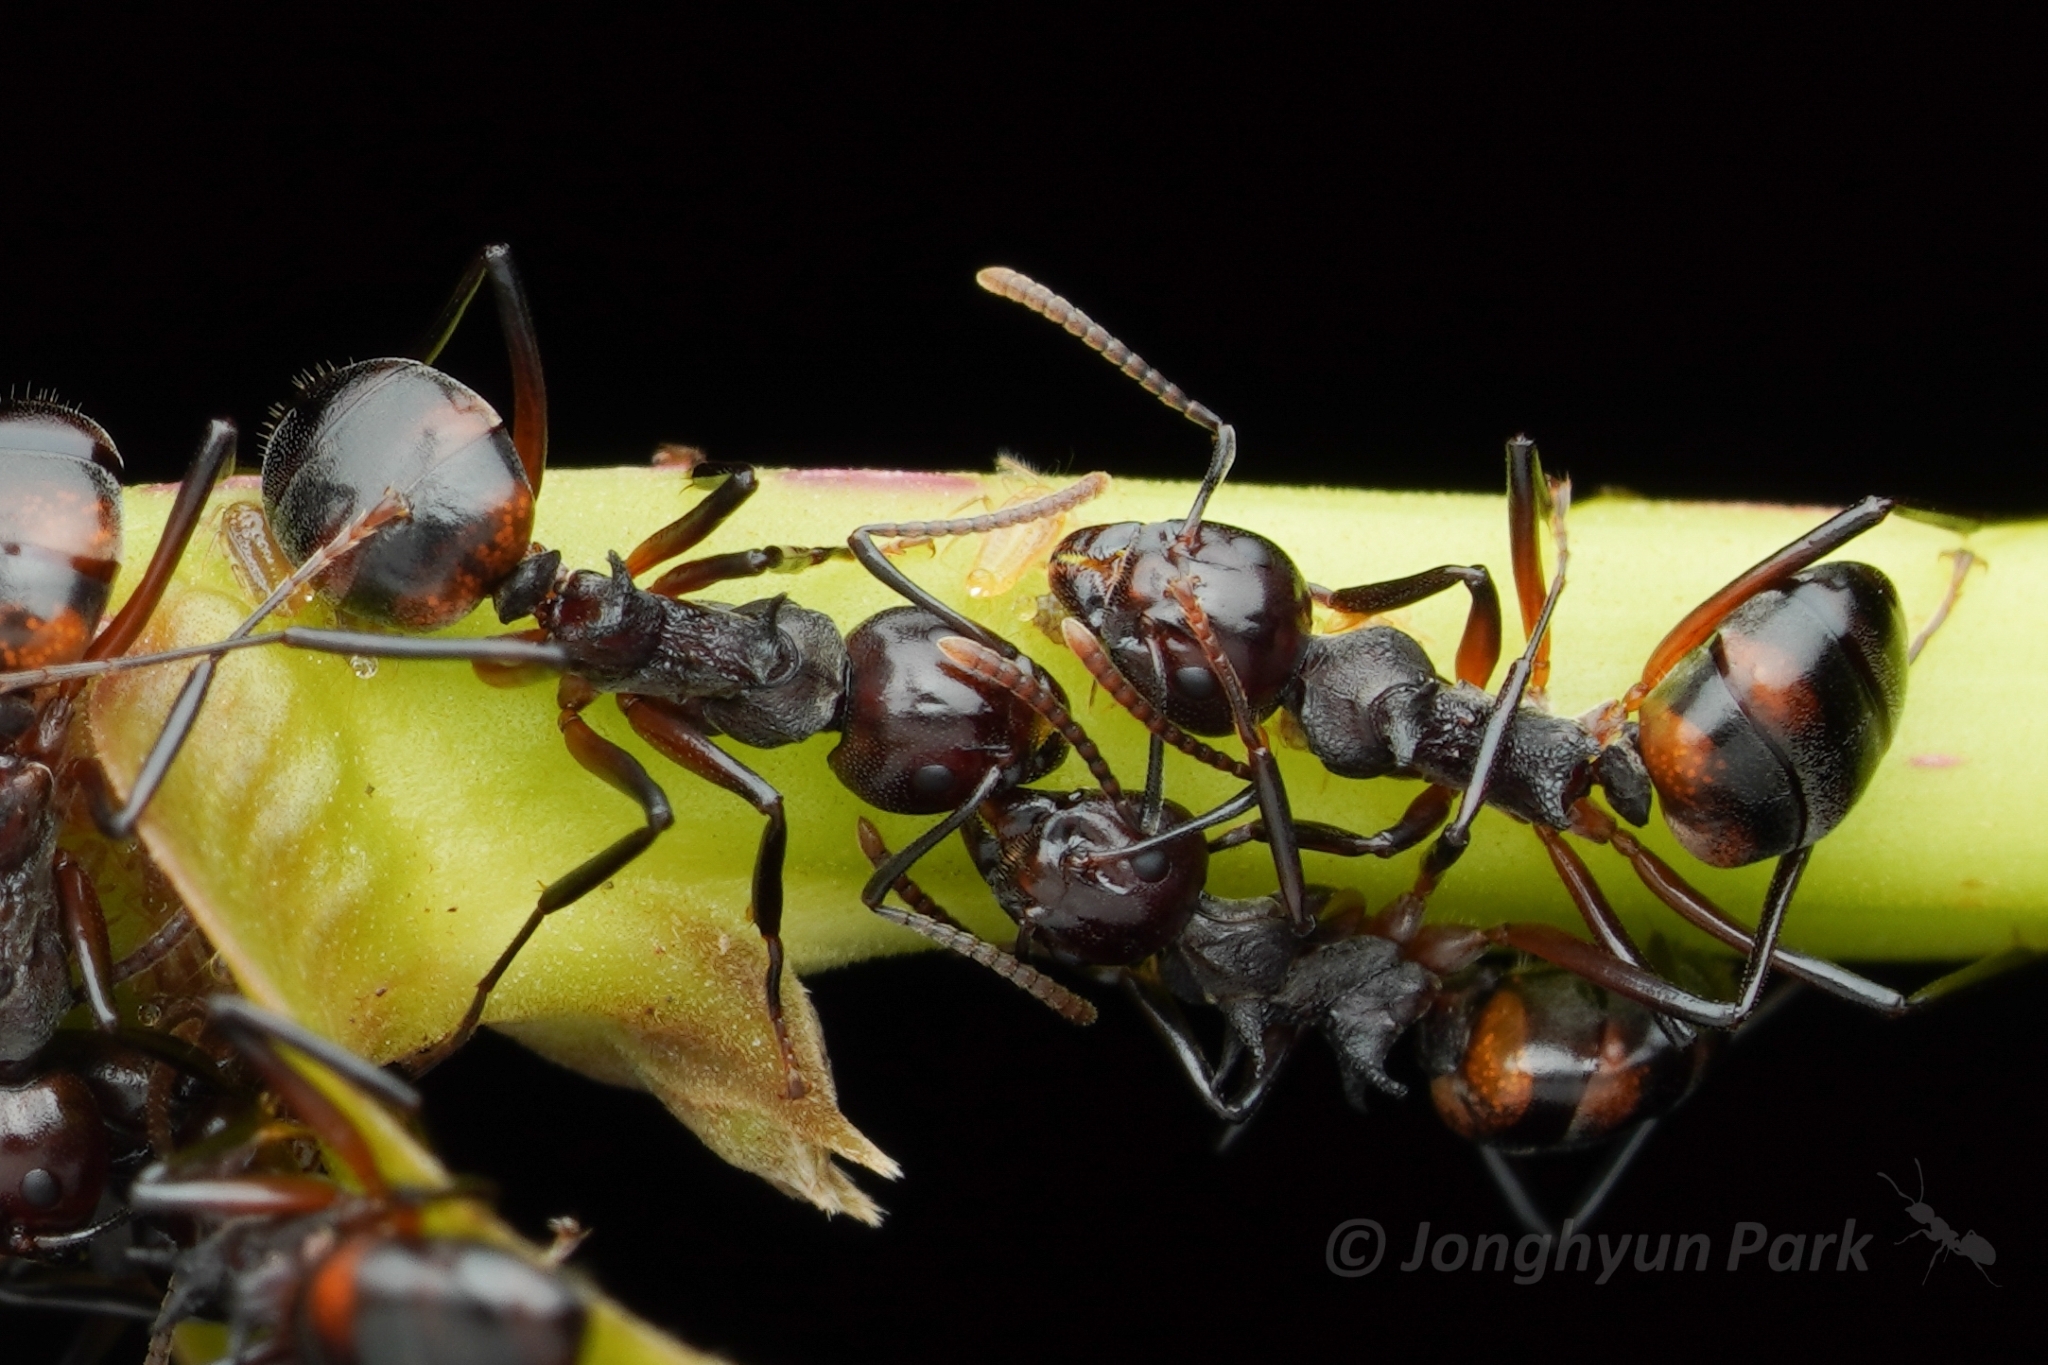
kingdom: Animalia
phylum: Arthropoda
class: Insecta
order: Hymenoptera
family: Formicidae
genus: Dolichoderus
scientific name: Dolichoderus cuspidatus
